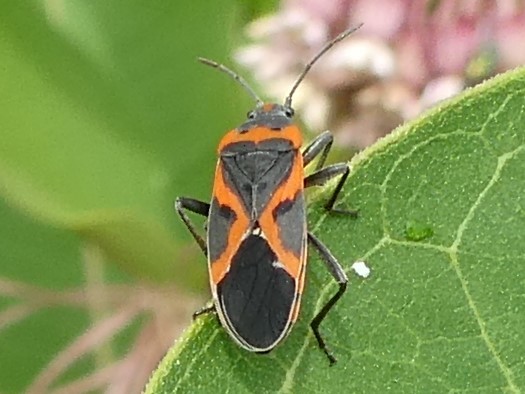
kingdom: Animalia
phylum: Arthropoda
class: Insecta
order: Hemiptera
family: Lygaeidae
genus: Lygaeus
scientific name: Lygaeus kalmii
